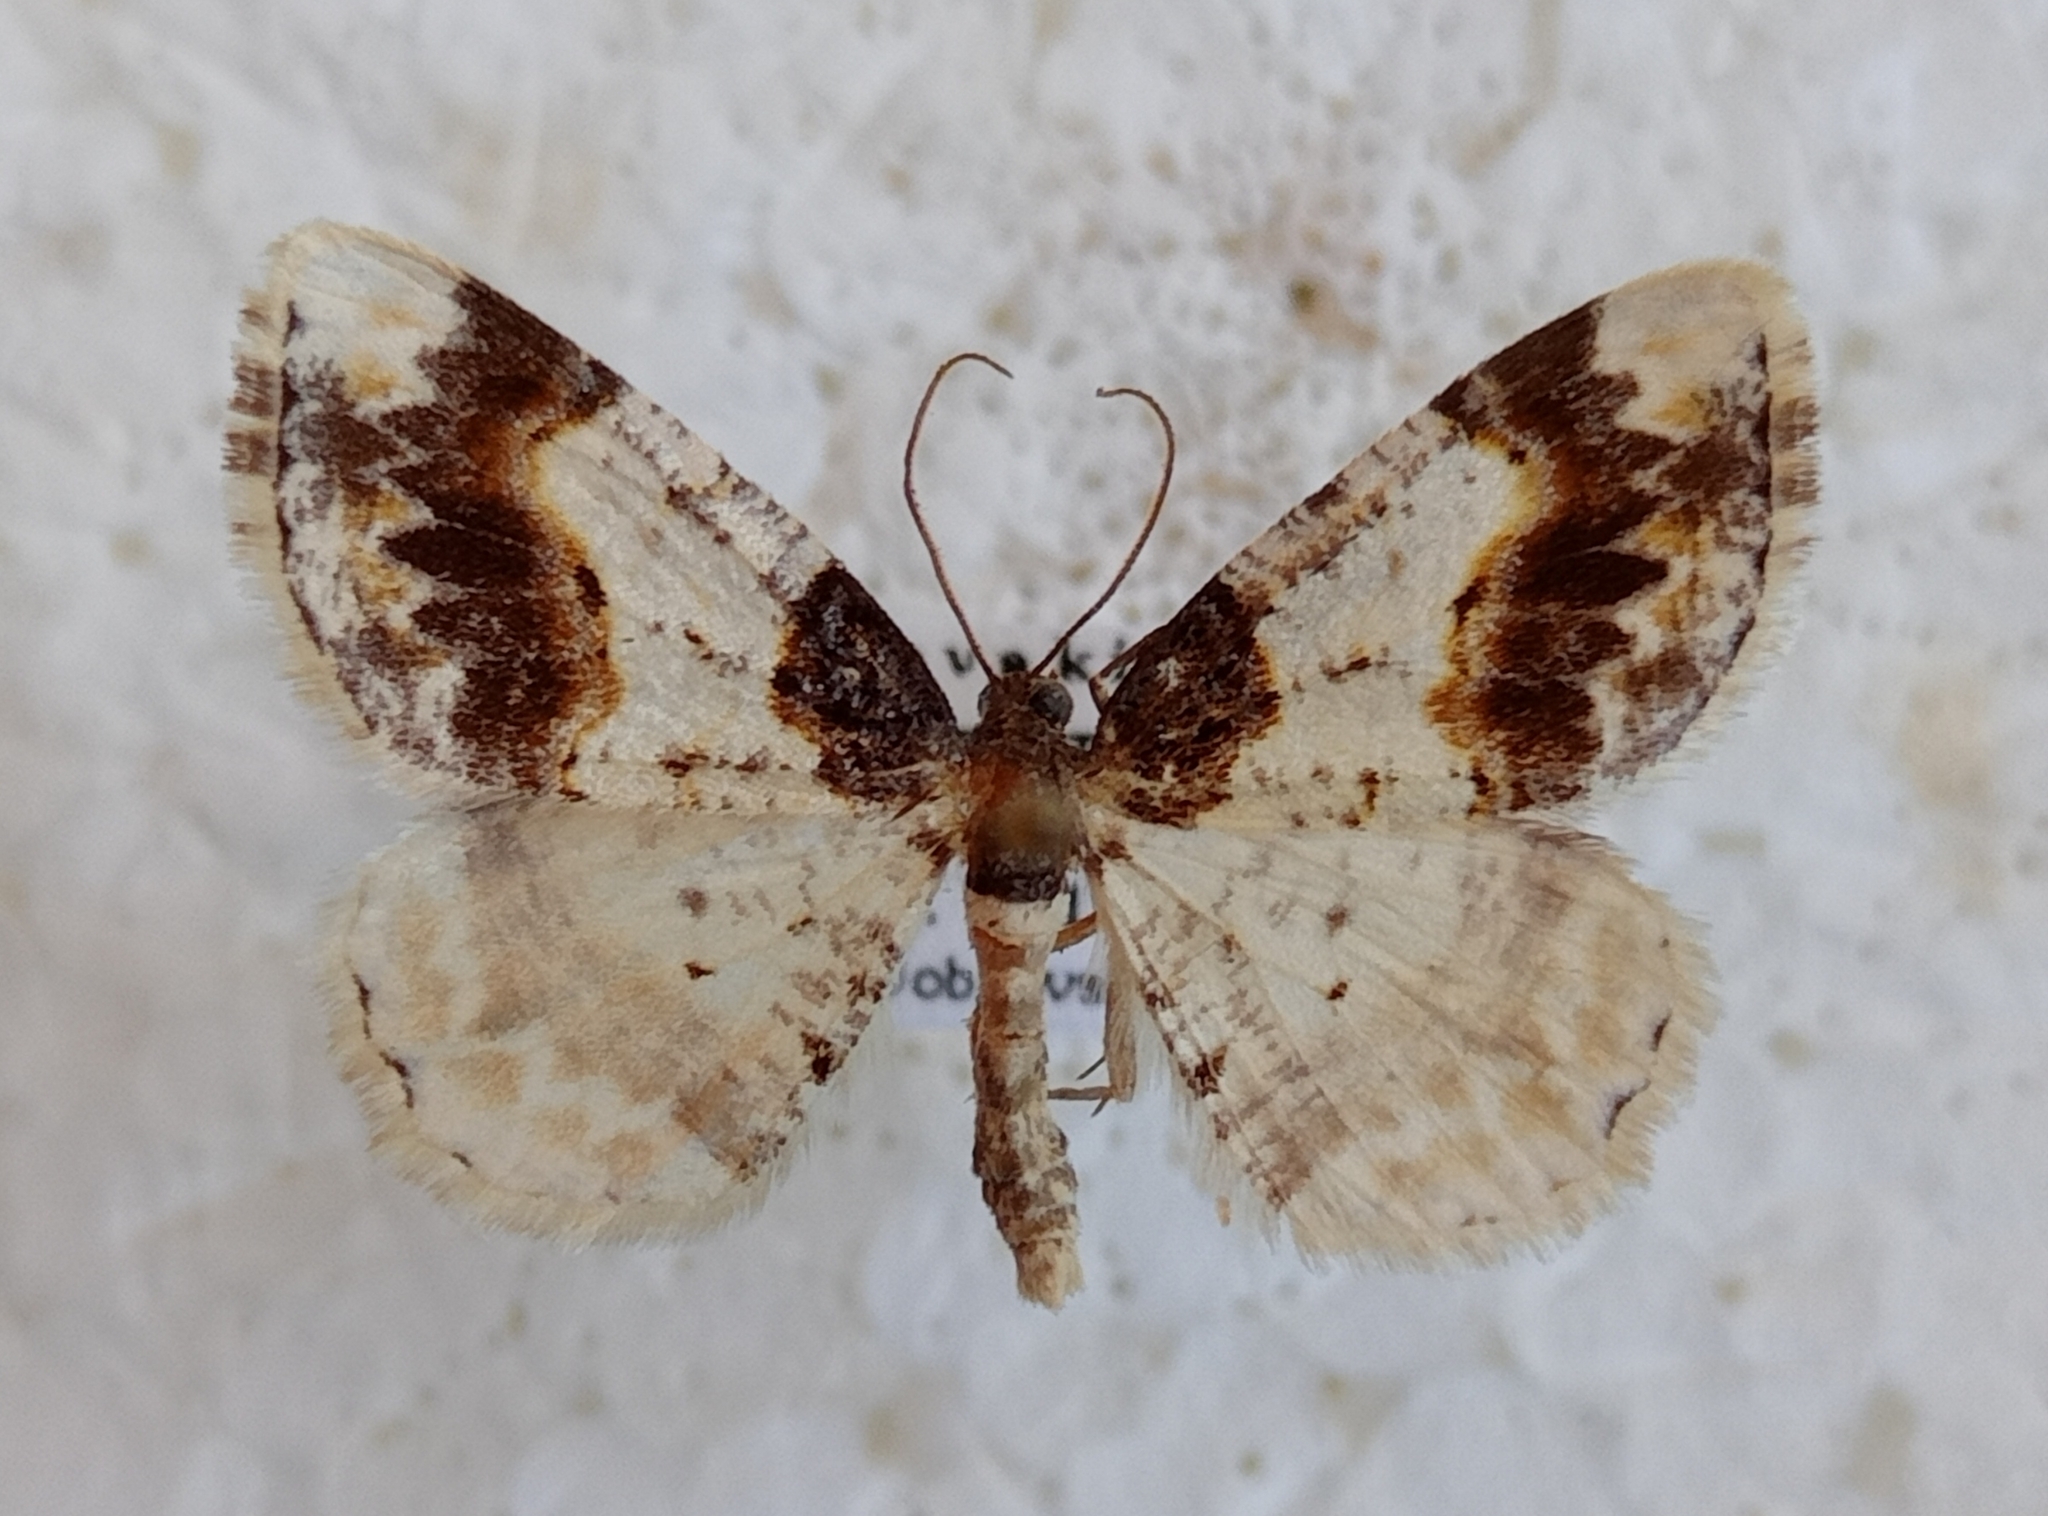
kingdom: Animalia
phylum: Arthropoda
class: Insecta
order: Lepidoptera
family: Geometridae
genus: Ligdia
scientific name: Ligdia adustata
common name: Scorched carpet
